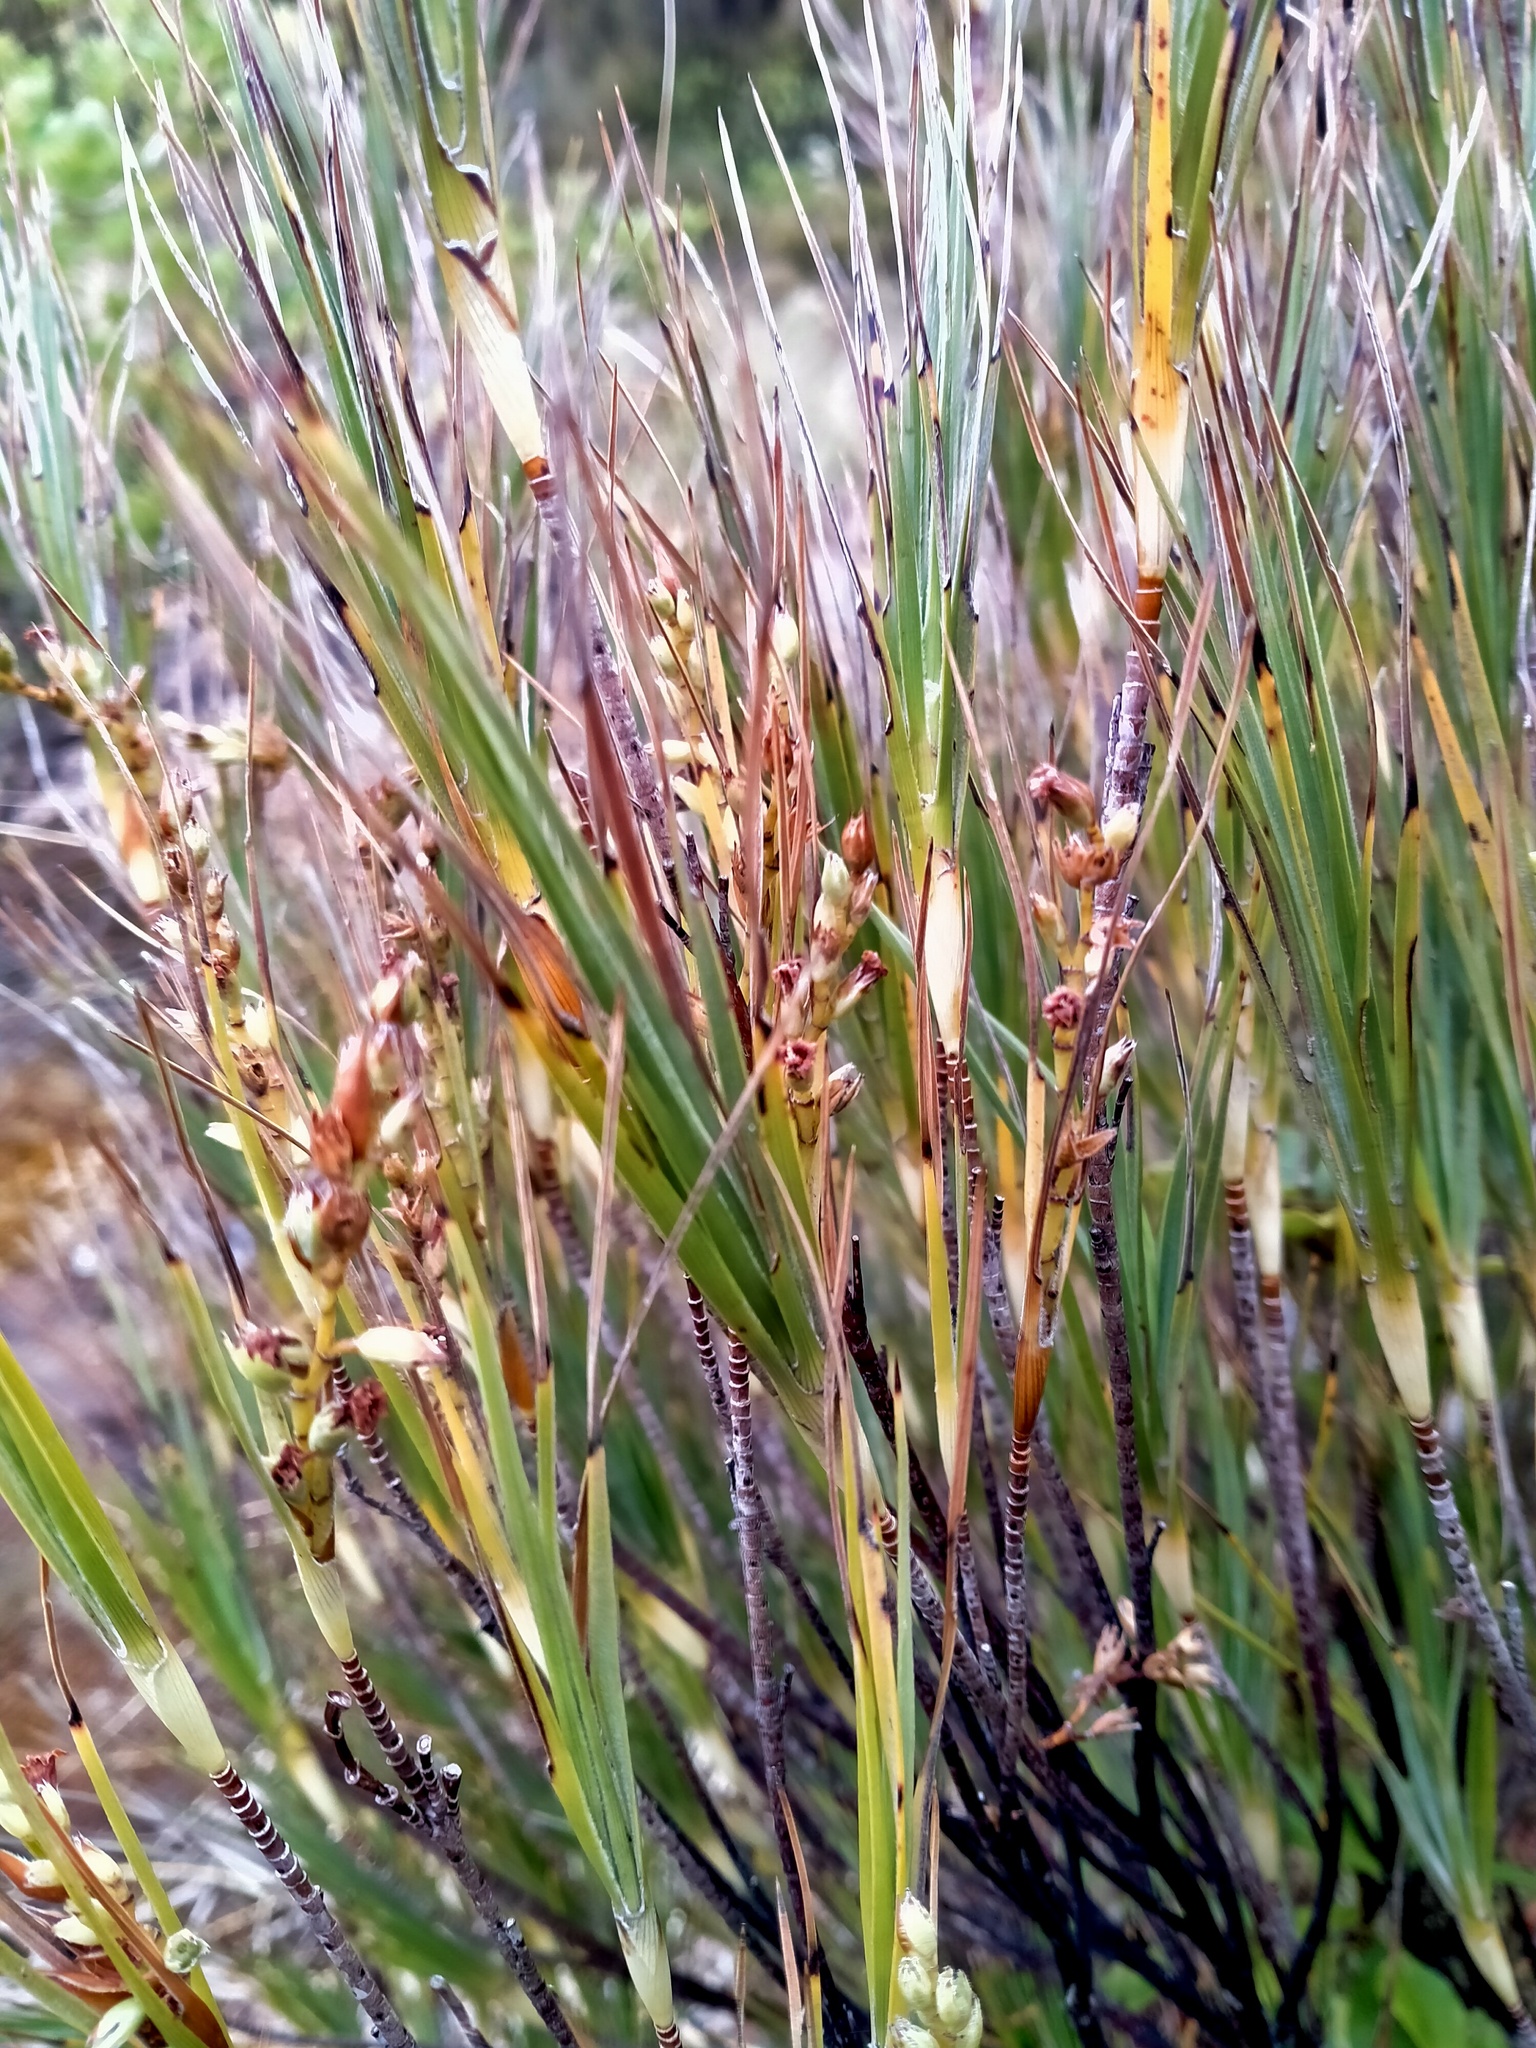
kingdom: Plantae
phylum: Tracheophyta
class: Magnoliopsida
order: Ericales
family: Ericaceae
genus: Dracophyllum
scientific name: Dracophyllum longifolium
